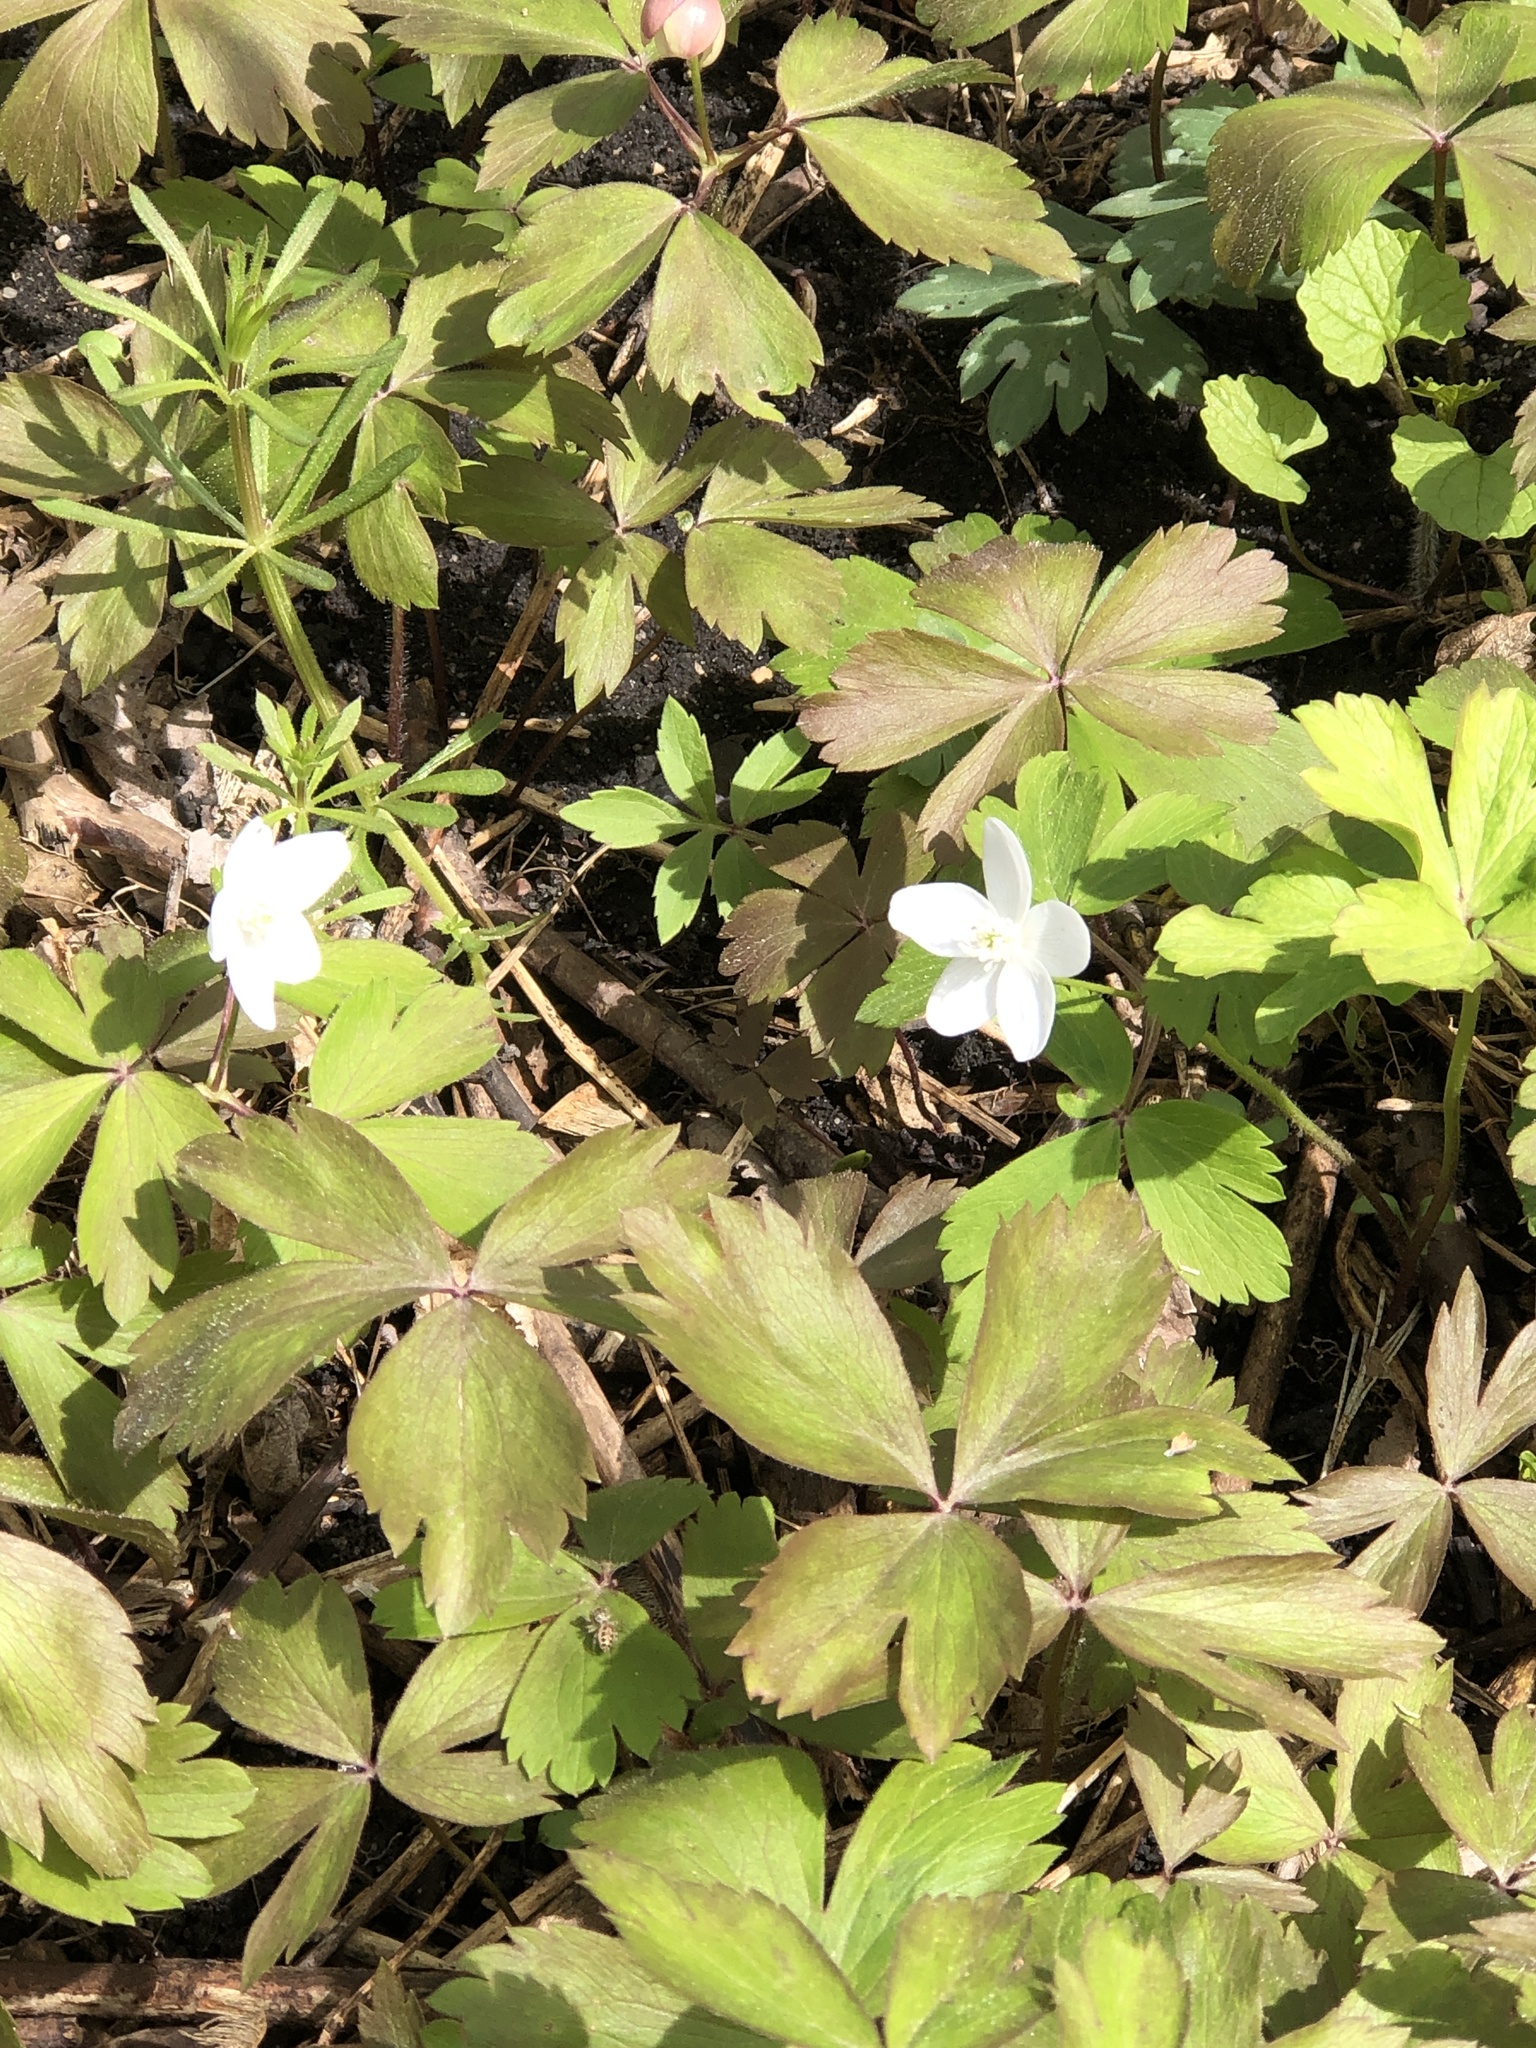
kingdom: Plantae
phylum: Tracheophyta
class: Magnoliopsida
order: Ranunculales
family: Ranunculaceae
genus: Anemone
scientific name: Anemone quinquefolia
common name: Wood anemone
